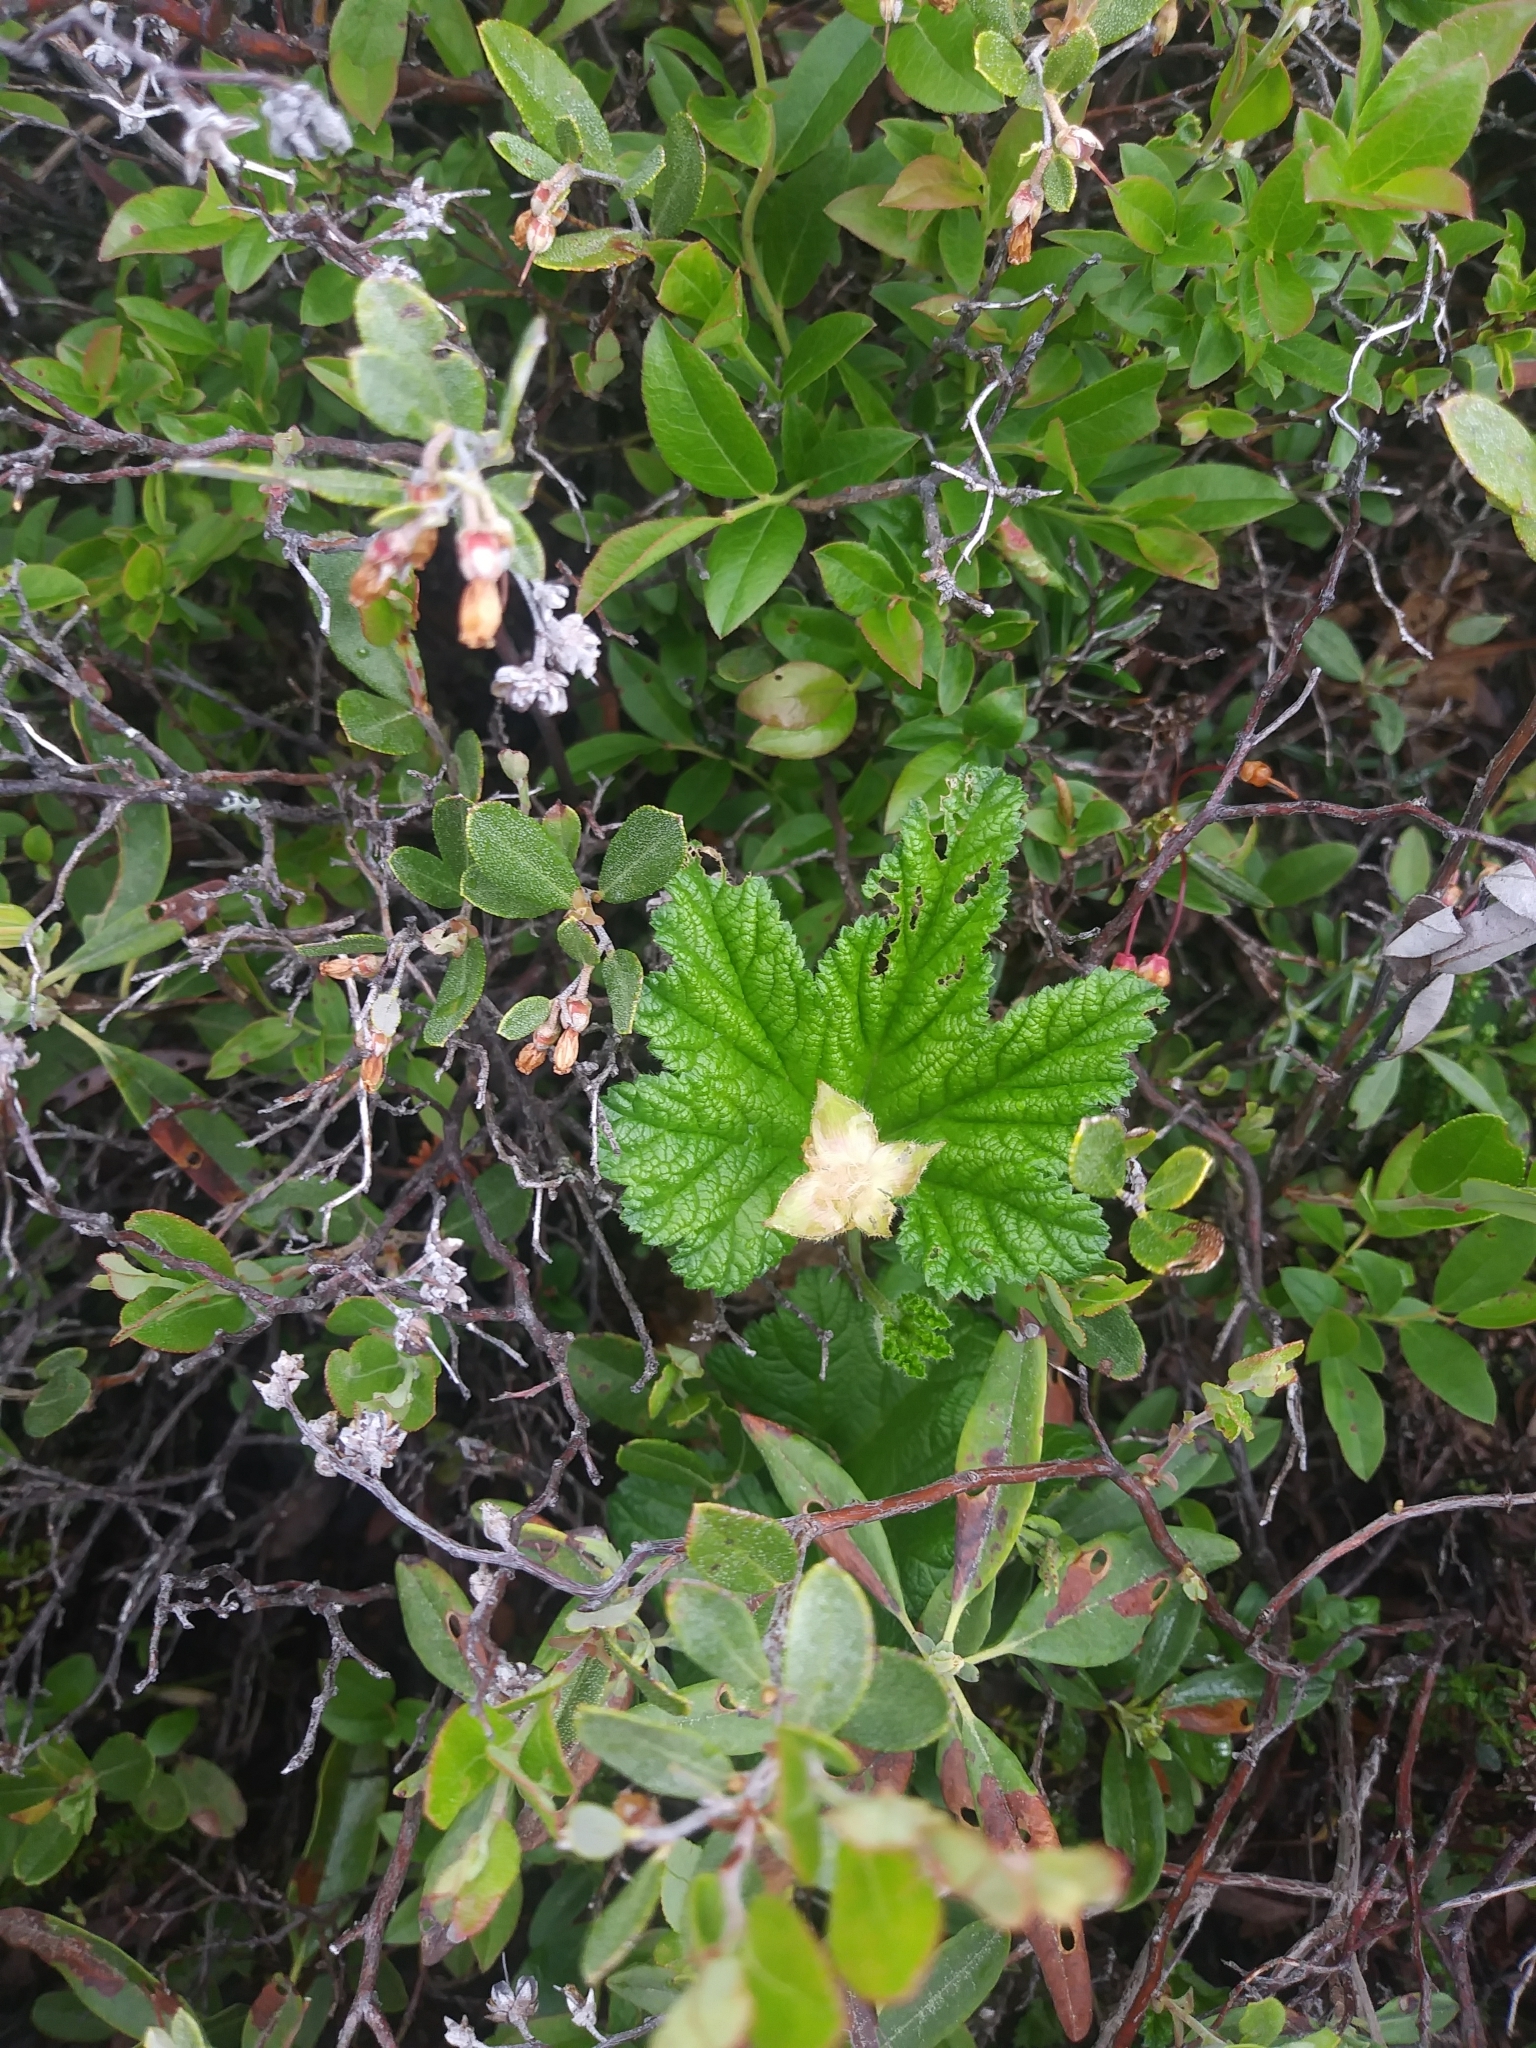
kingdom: Plantae
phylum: Tracheophyta
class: Magnoliopsida
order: Rosales
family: Rosaceae
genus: Rubus
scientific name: Rubus chamaemorus
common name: Cloudberry
